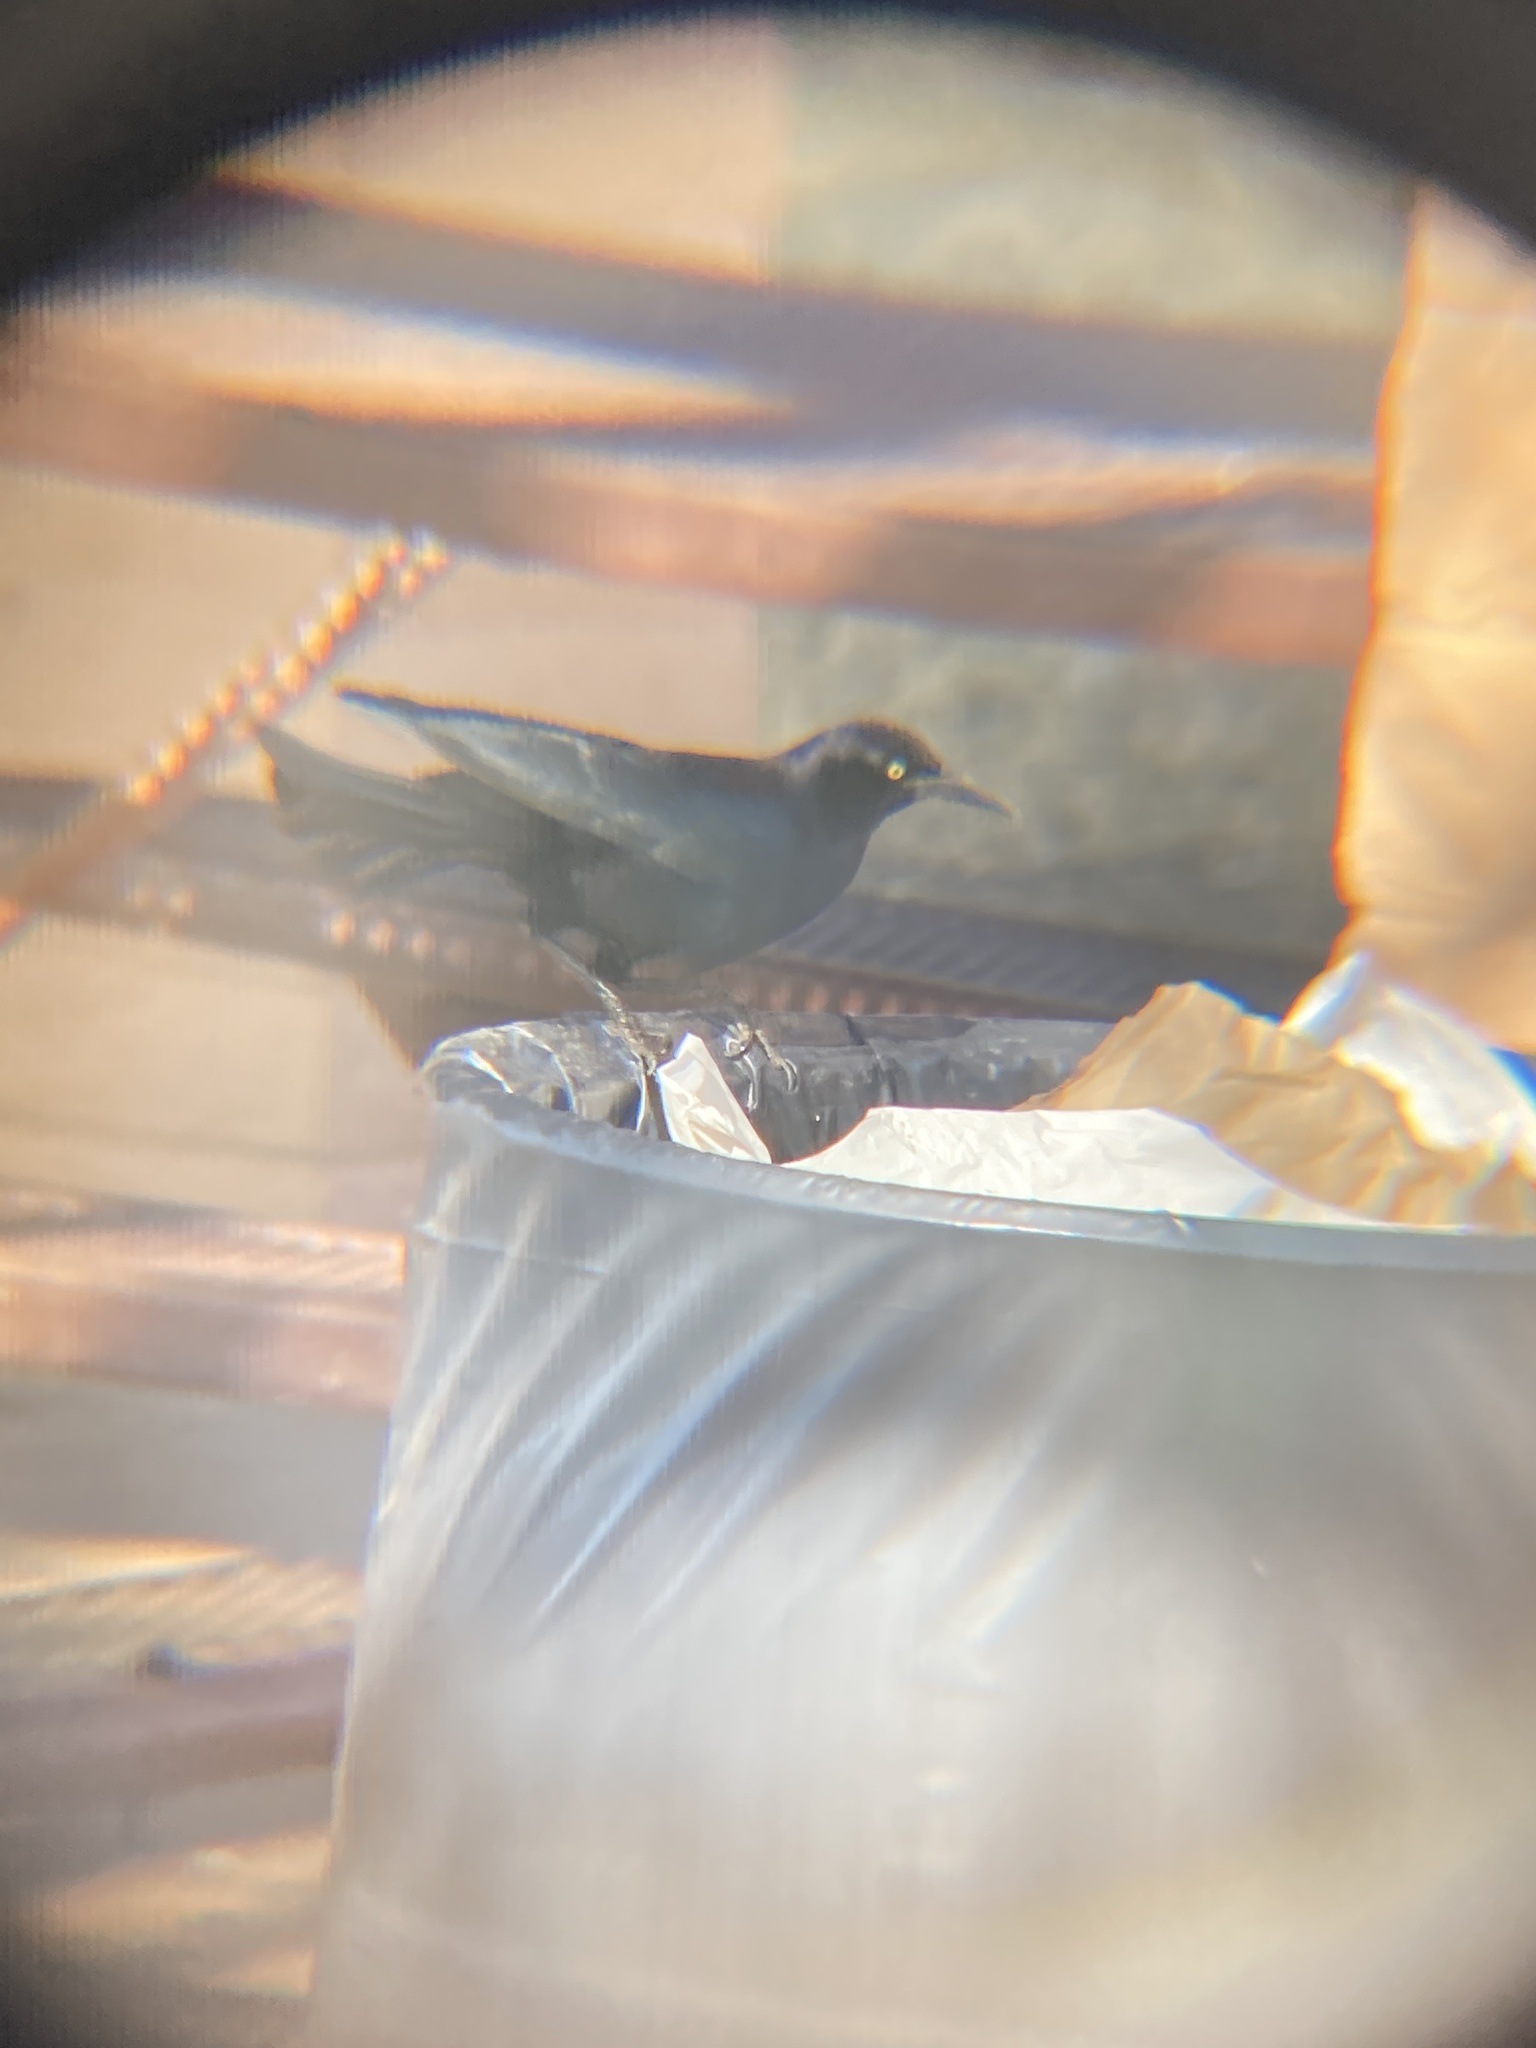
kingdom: Animalia
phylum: Chordata
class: Aves
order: Passeriformes
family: Icteridae
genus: Quiscalus
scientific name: Quiscalus mexicanus
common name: Great-tailed grackle
